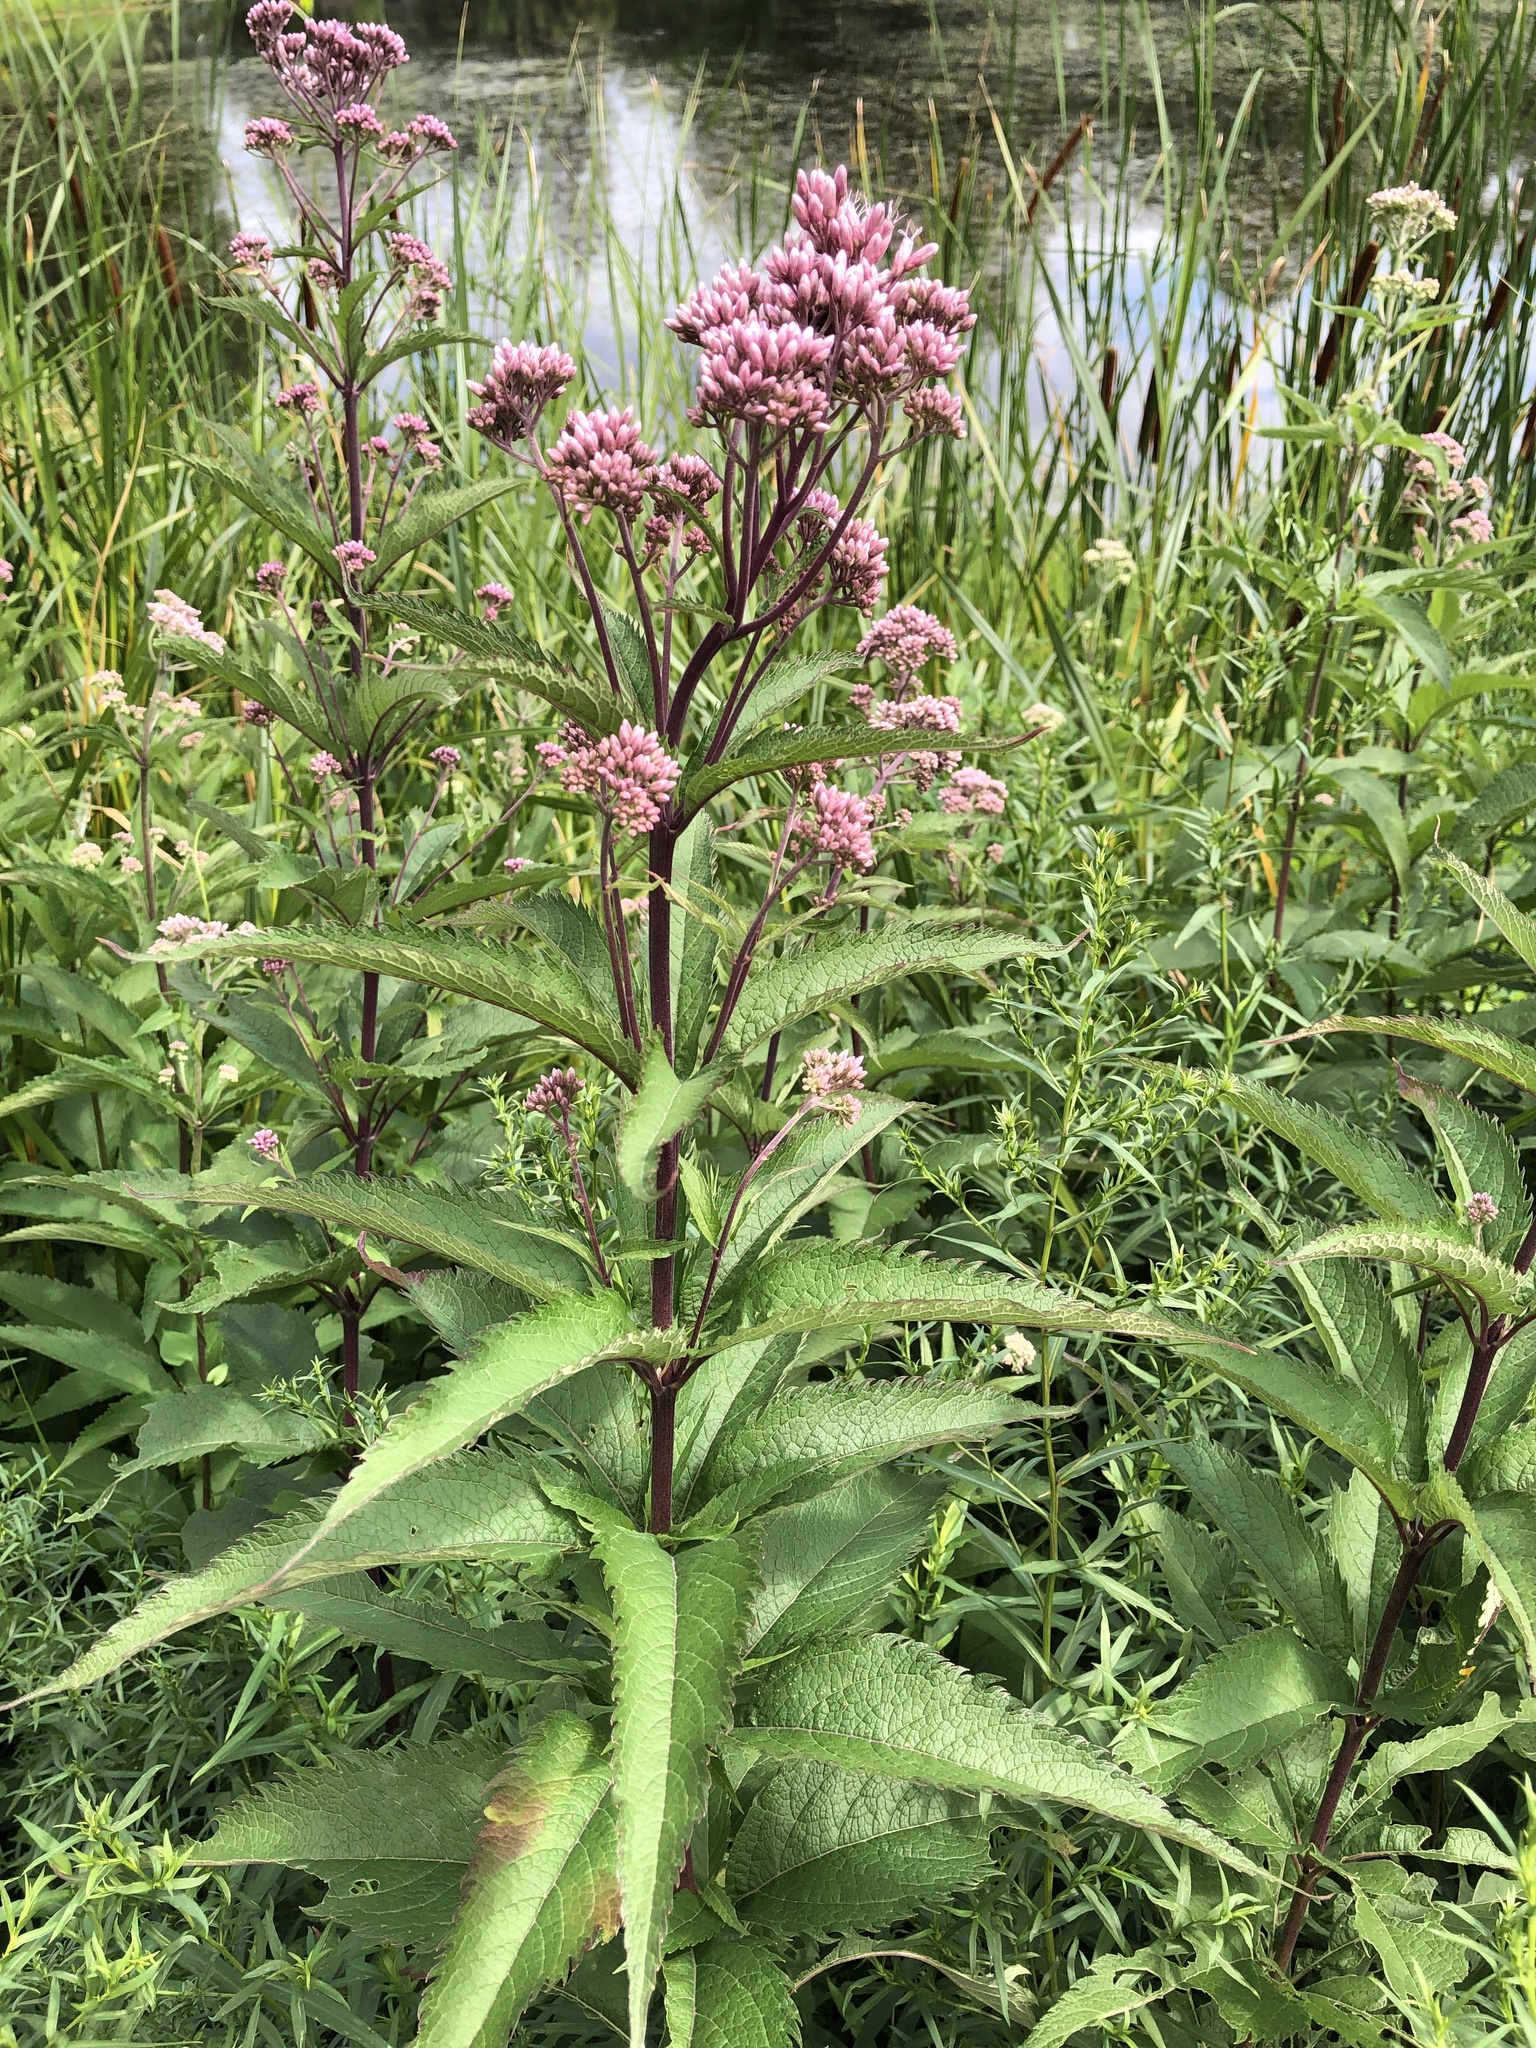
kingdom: Plantae
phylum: Tracheophyta
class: Magnoliopsida
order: Asterales
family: Asteraceae
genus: Eutrochium
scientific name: Eutrochium maculatum
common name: Spotted joe pye weed
